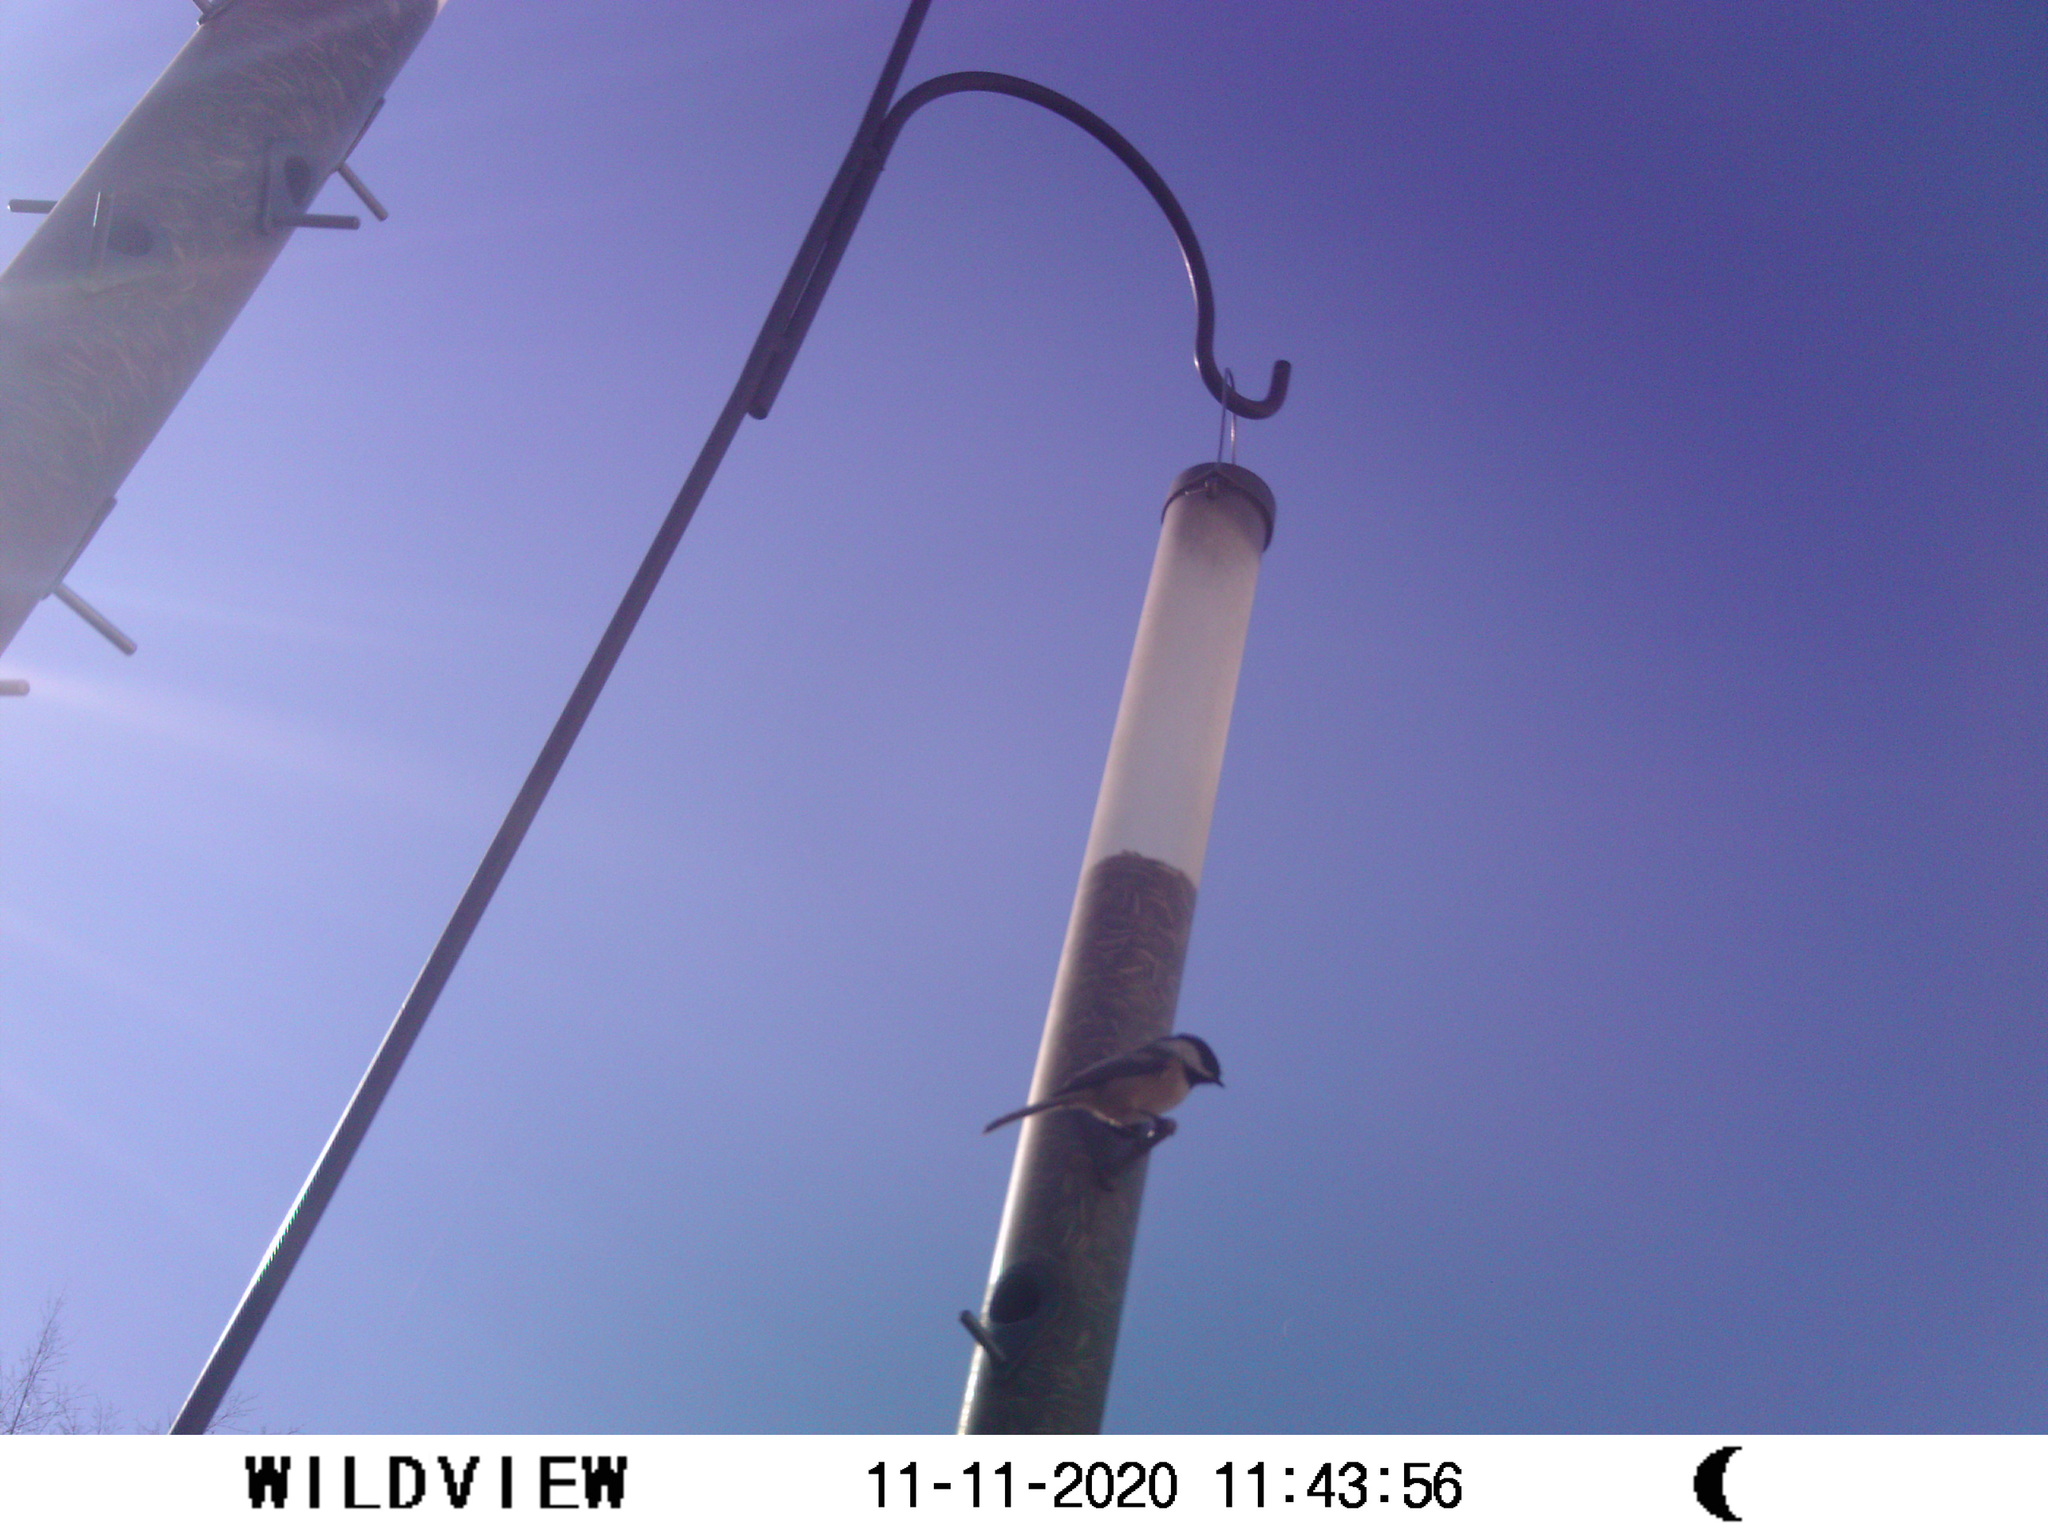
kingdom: Animalia
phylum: Chordata
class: Aves
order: Passeriformes
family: Paridae
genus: Poecile
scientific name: Poecile atricapillus
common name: Black-capped chickadee
